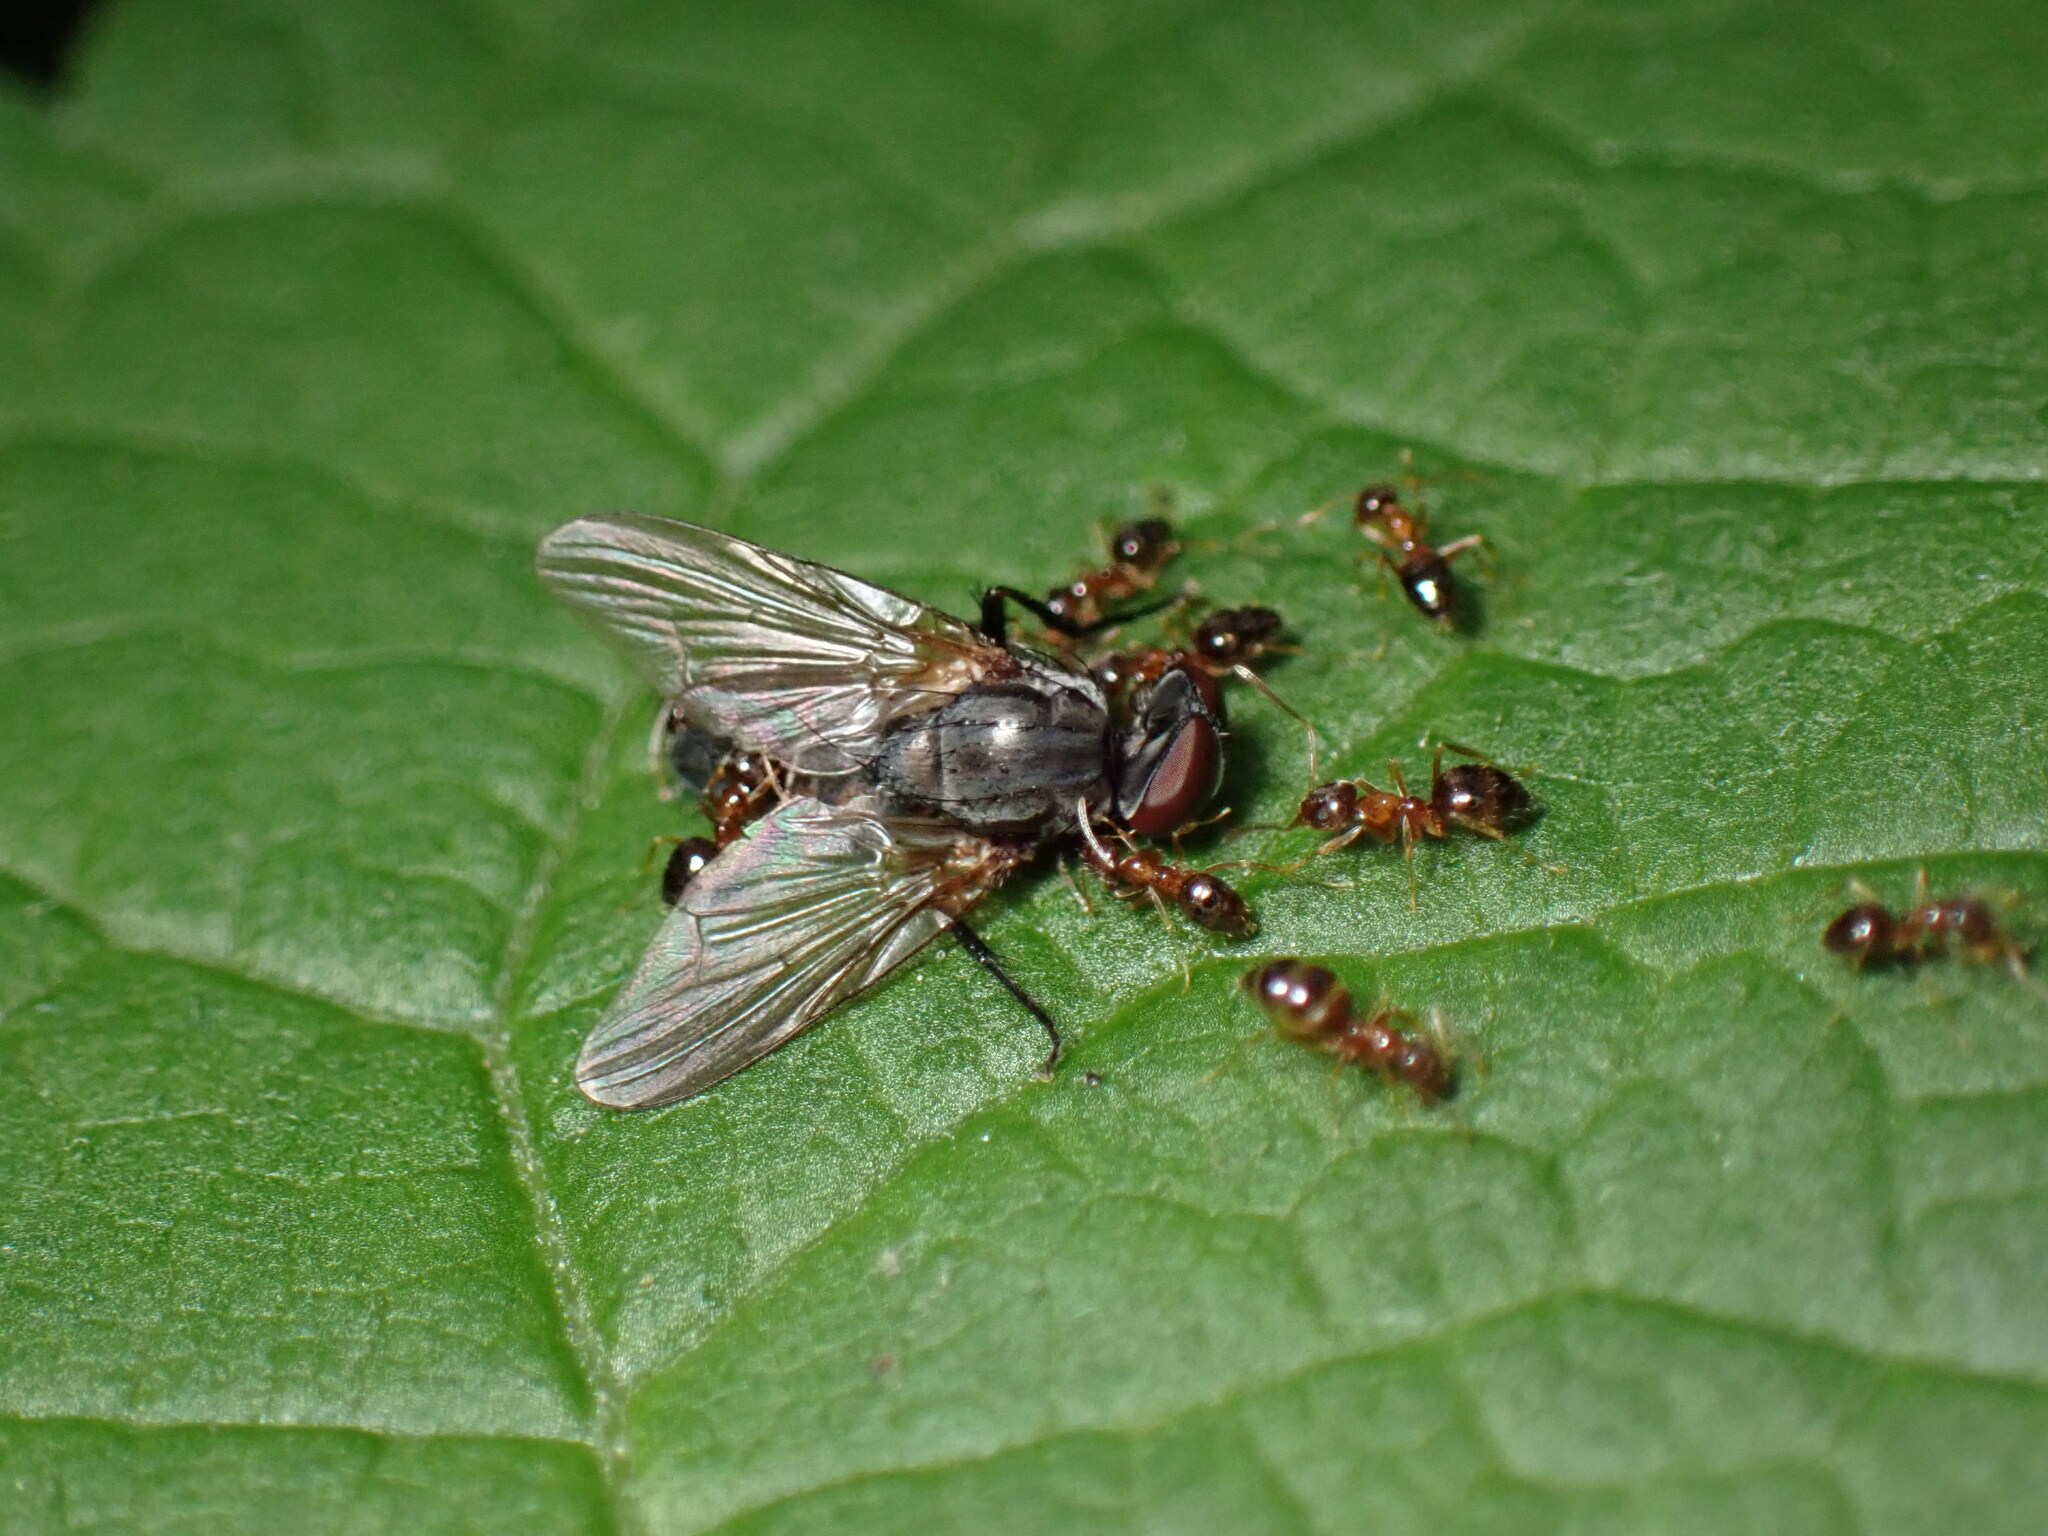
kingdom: Animalia
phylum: Arthropoda
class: Insecta
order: Hymenoptera
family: Formicidae
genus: Paratrechina
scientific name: Paratrechina flavipes
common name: Eastern asian formicine ant
